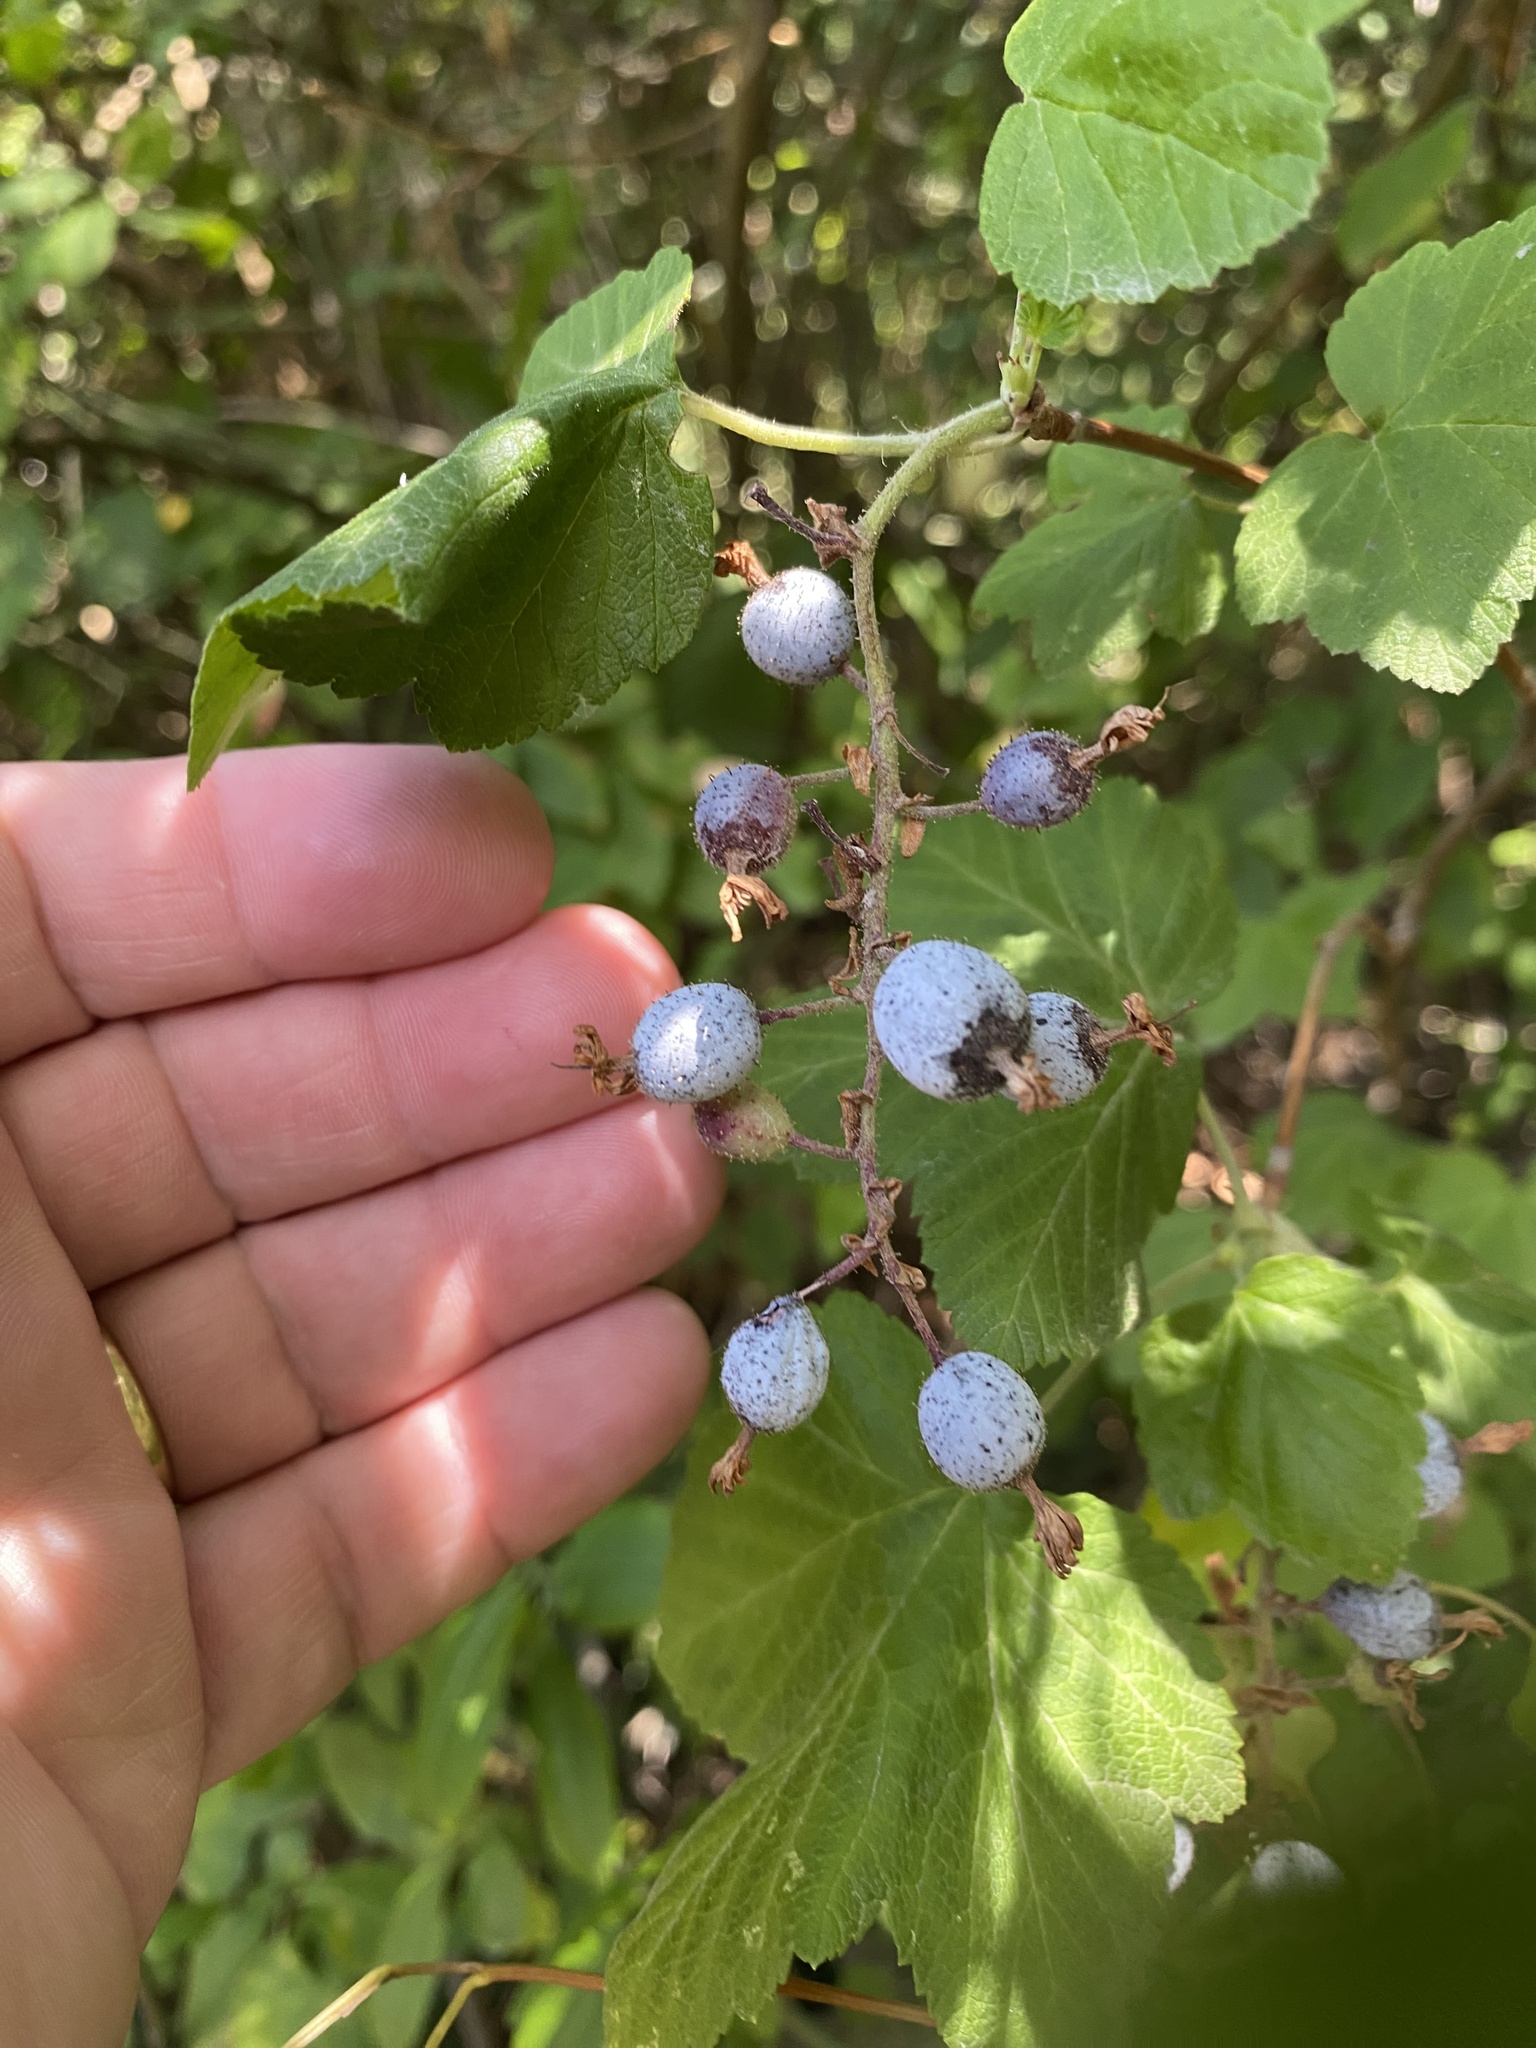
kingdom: Plantae
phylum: Tracheophyta
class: Magnoliopsida
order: Saxifragales
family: Grossulariaceae
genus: Ribes
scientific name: Ribes sanguineum
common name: Flowering currant
